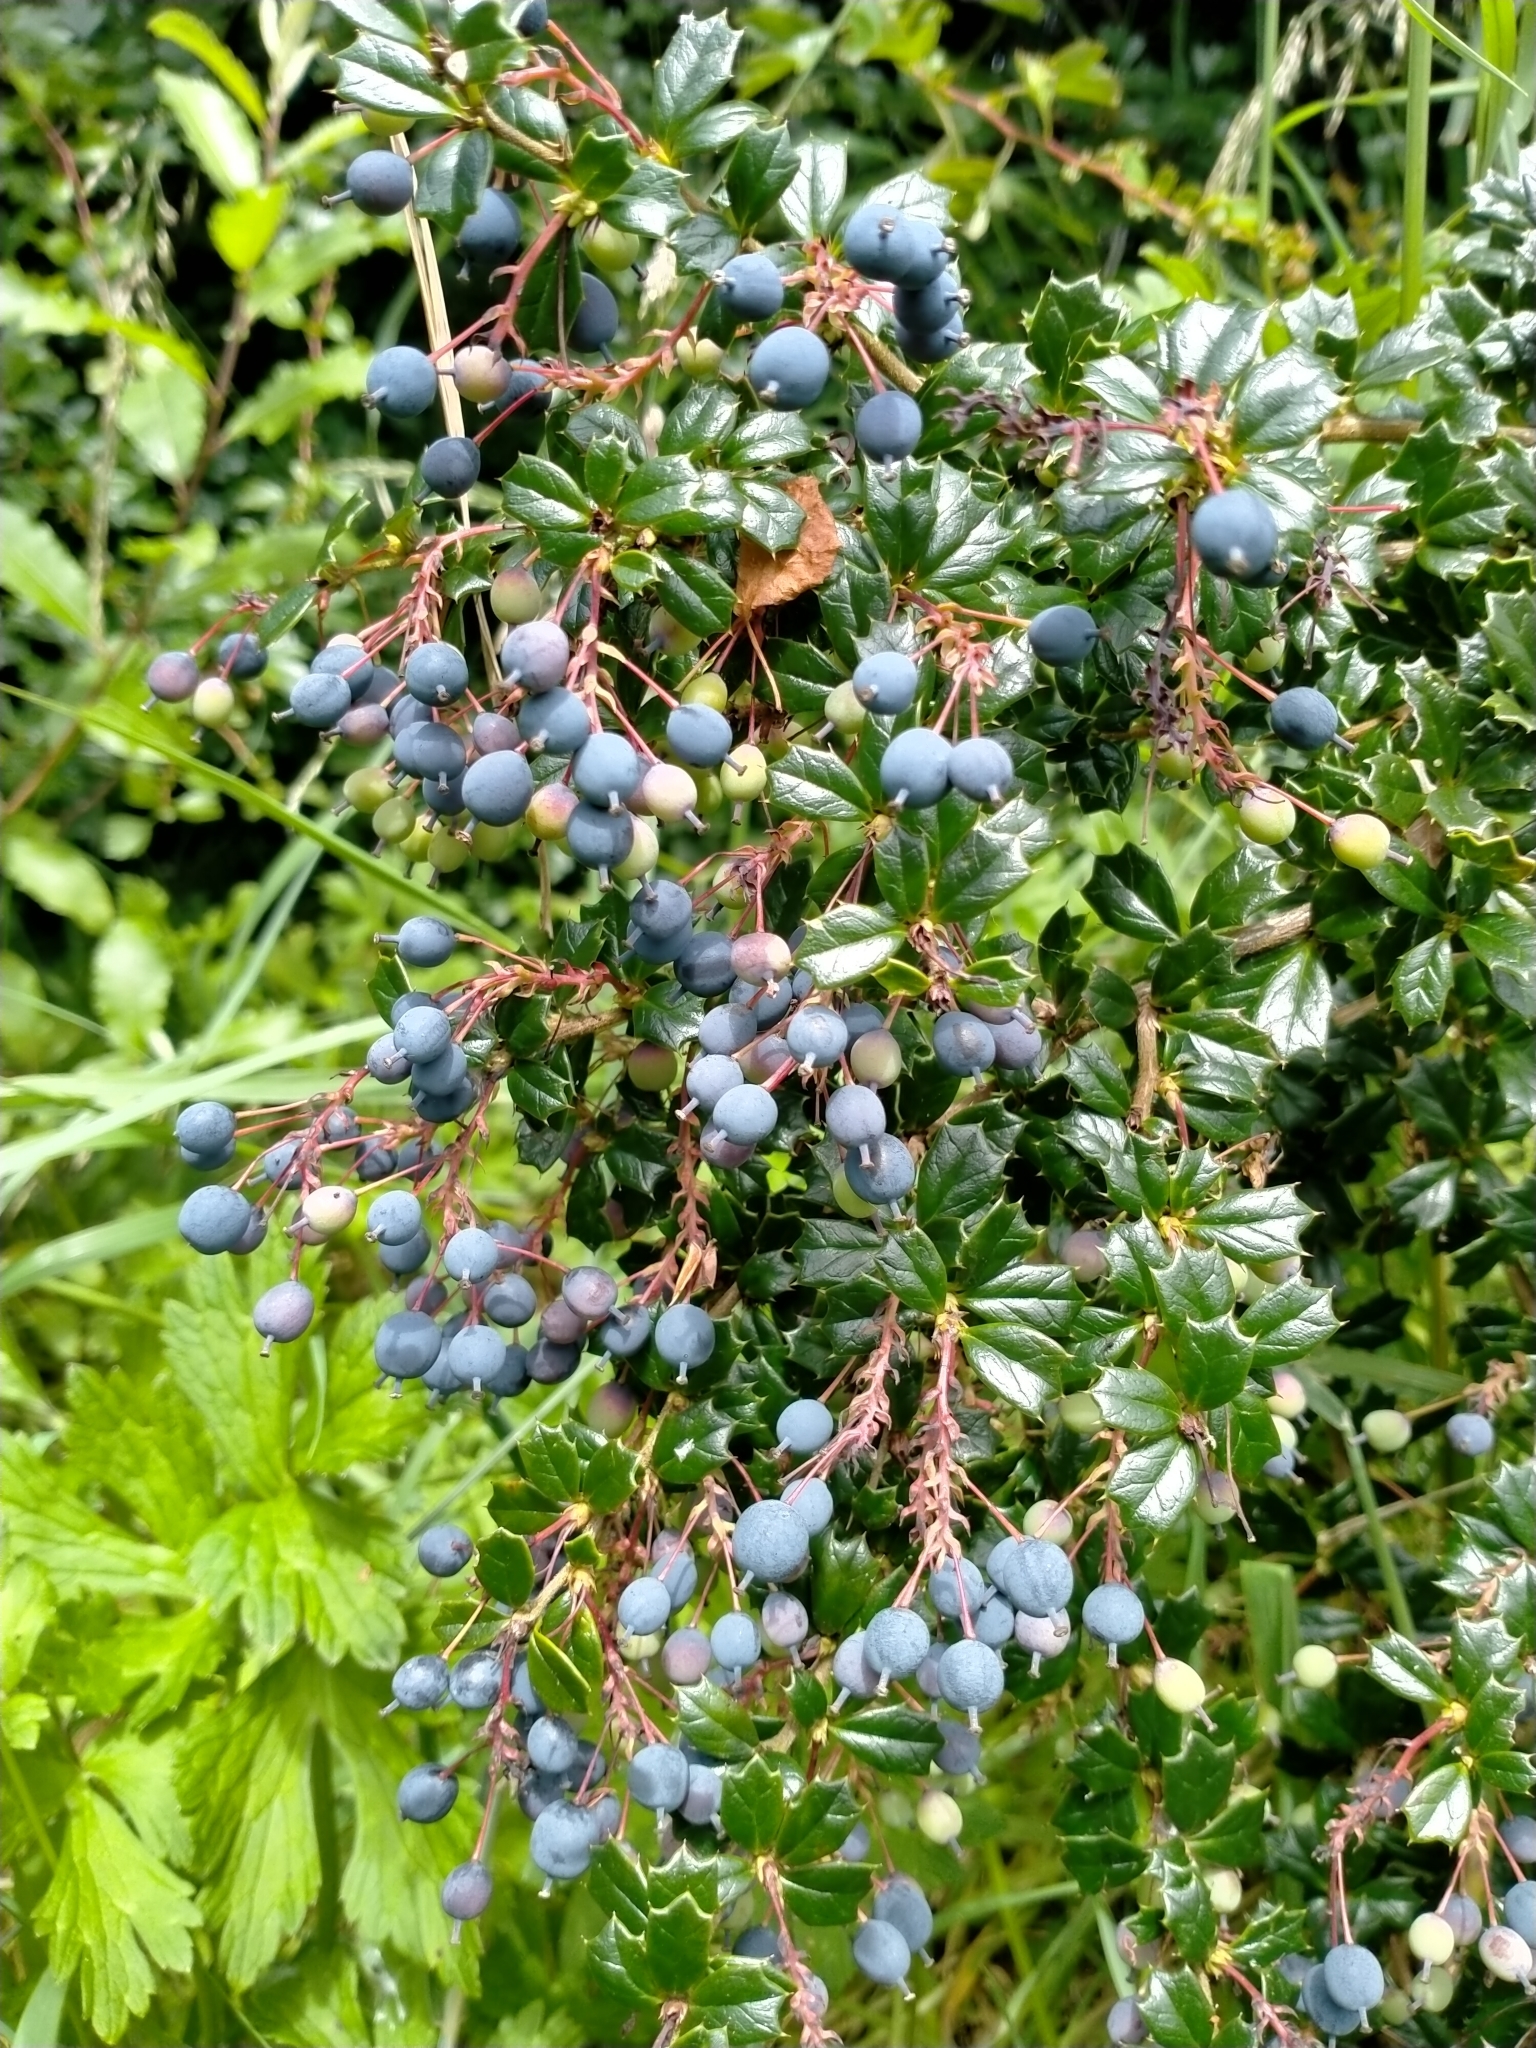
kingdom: Plantae
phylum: Tracheophyta
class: Magnoliopsida
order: Ranunculales
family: Berberidaceae
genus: Berberis
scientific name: Berberis darwinii
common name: Darwin's barberry
